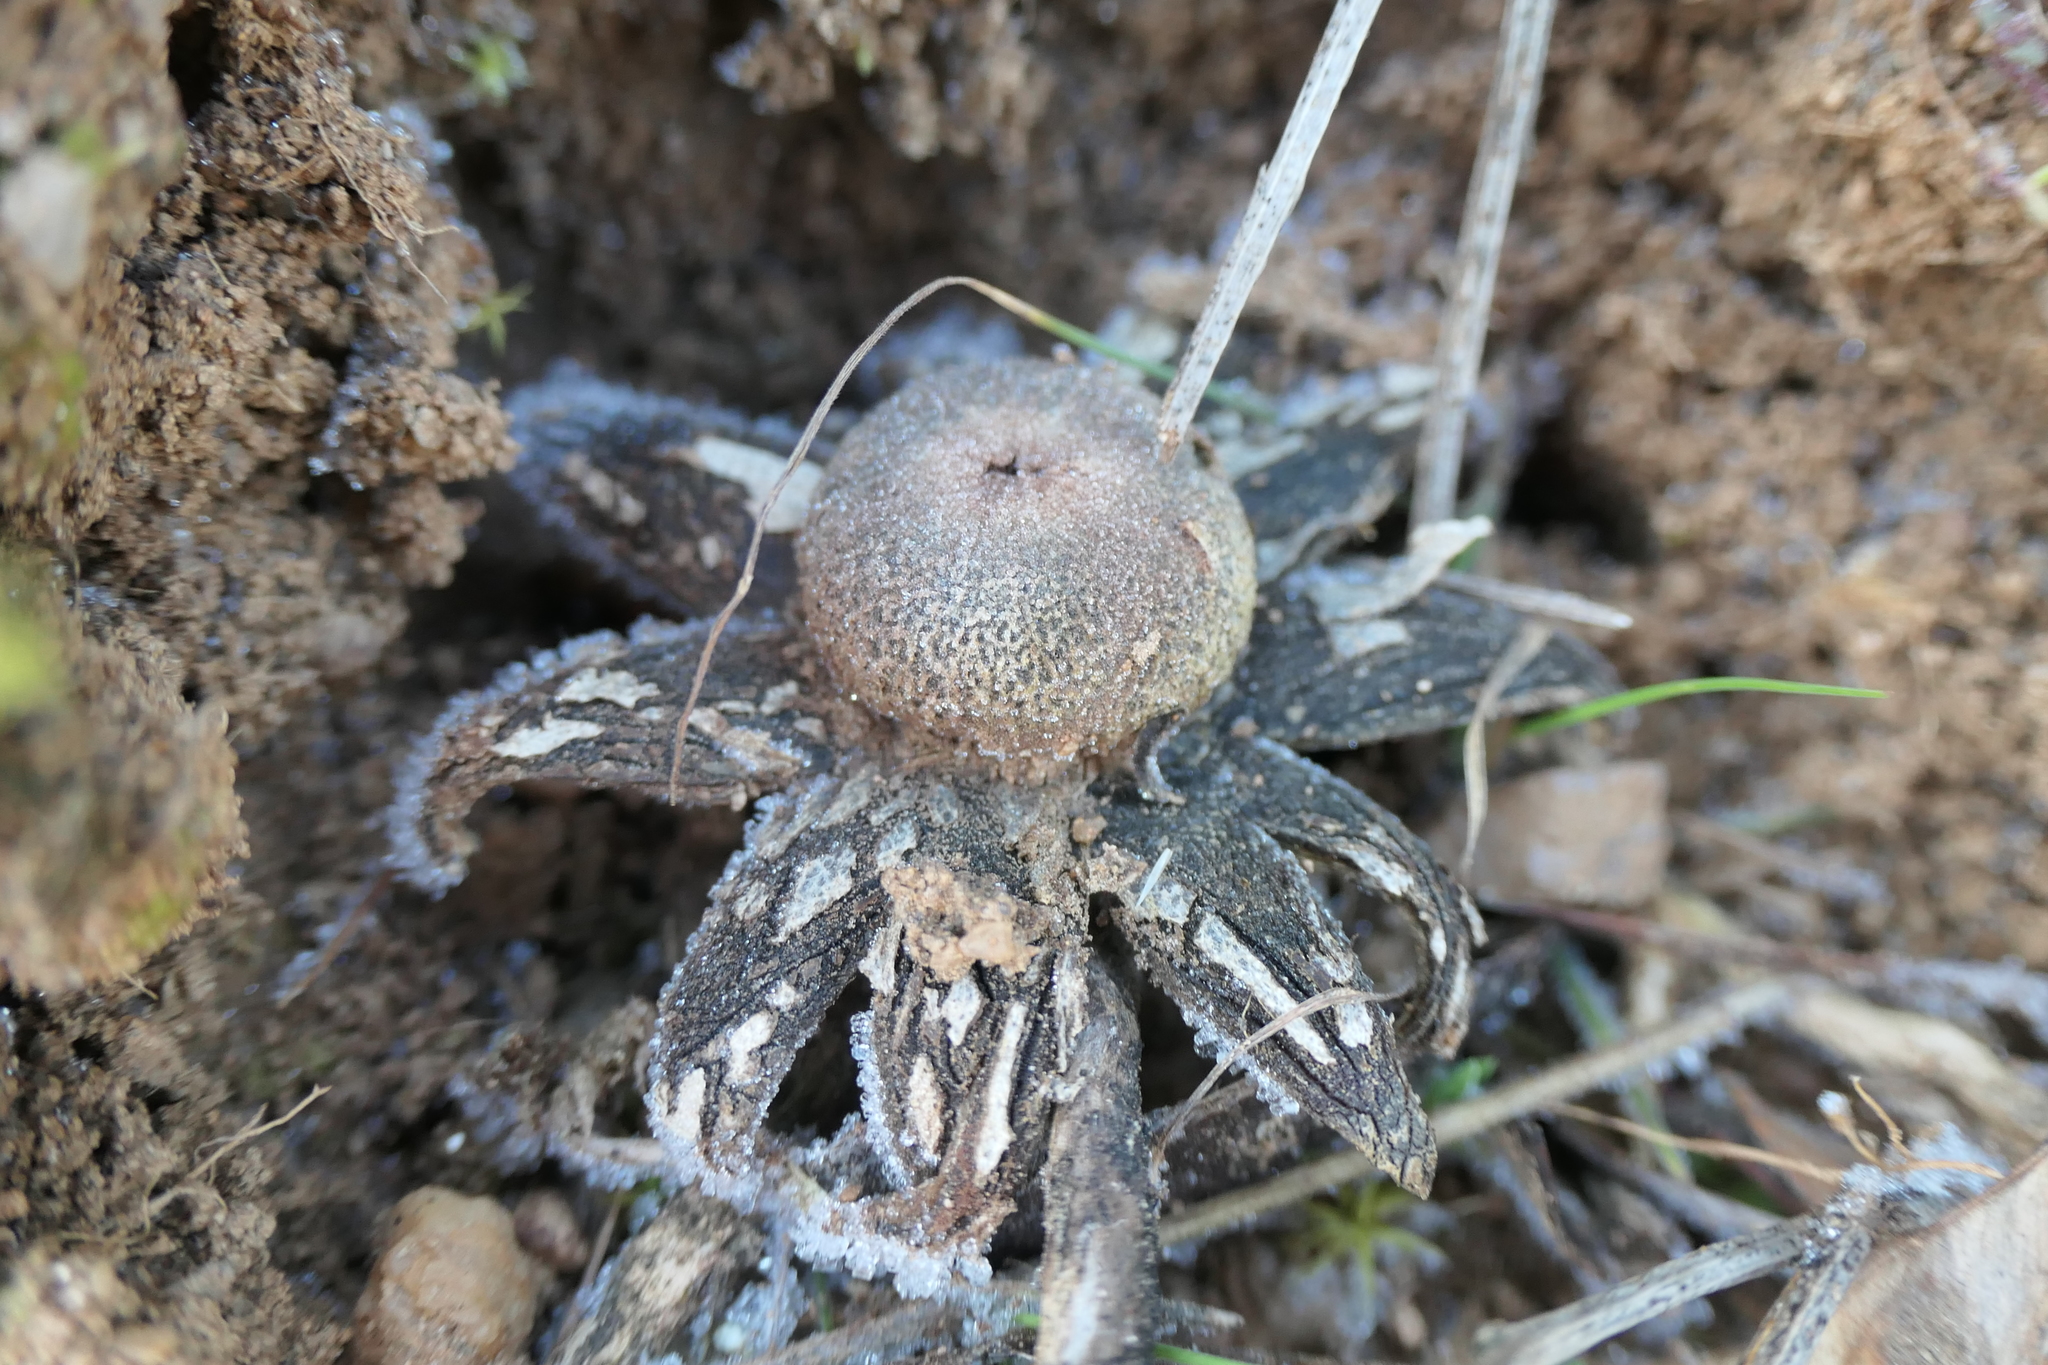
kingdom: Fungi
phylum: Basidiomycota
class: Agaricomycetes
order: Boletales
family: Diplocystidiaceae
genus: Astraeus
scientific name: Astraeus hygrometricus
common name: Barometer earthstar
